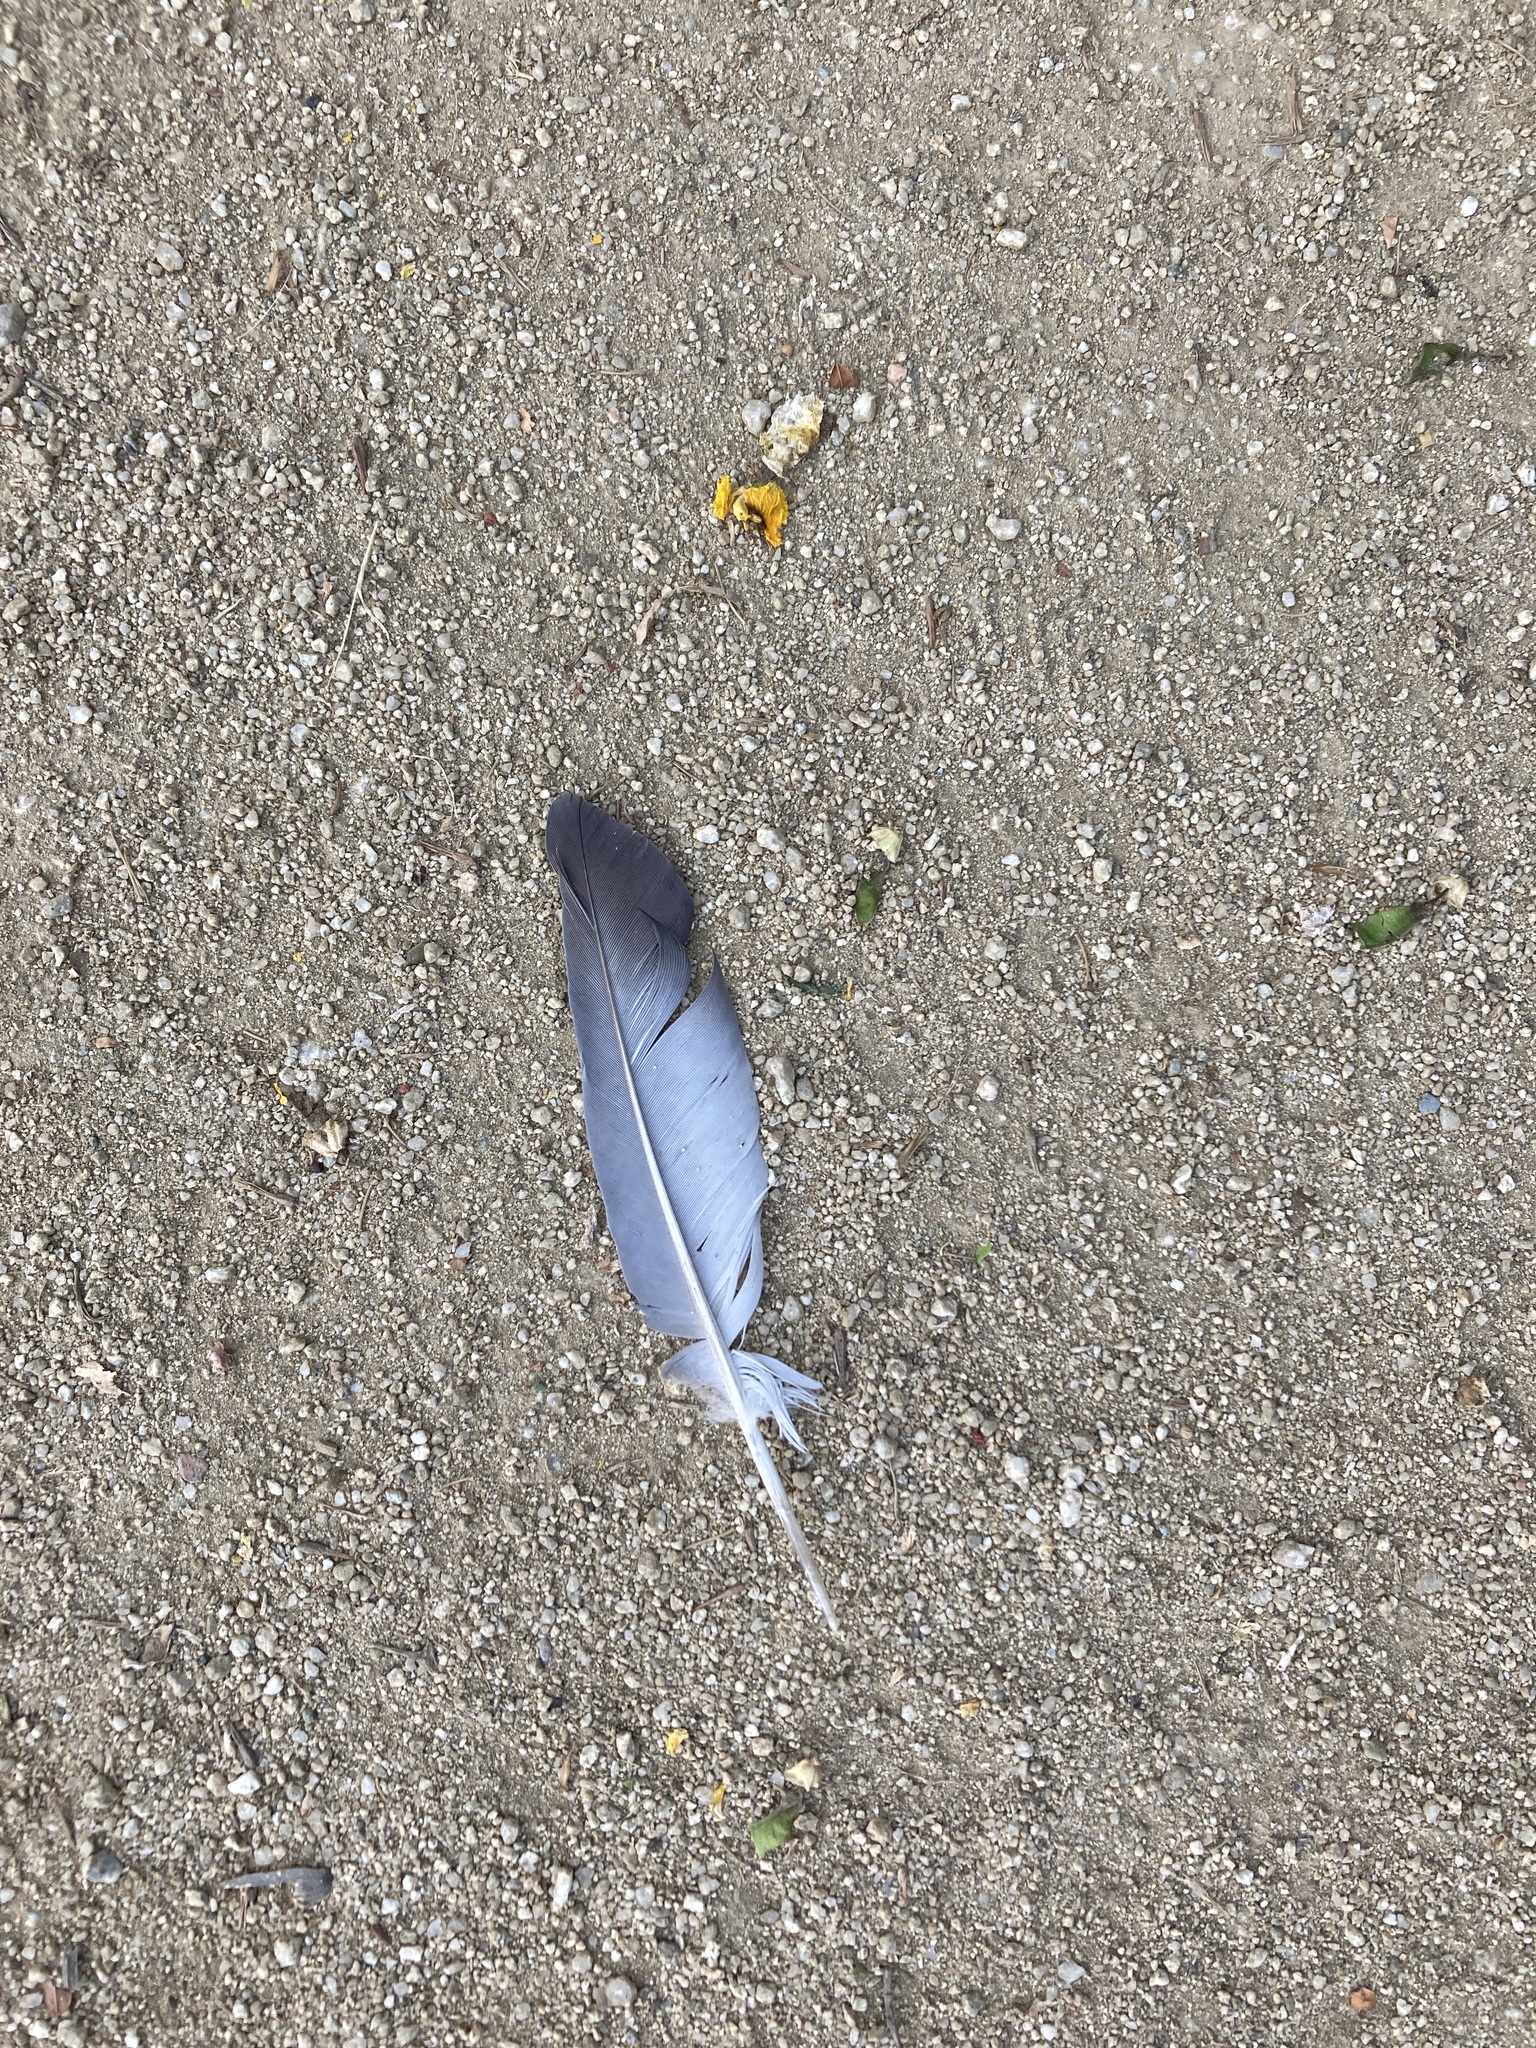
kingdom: Animalia
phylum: Chordata
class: Aves
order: Columbiformes
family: Columbidae
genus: Columba
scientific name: Columba livia
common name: Rock pigeon
